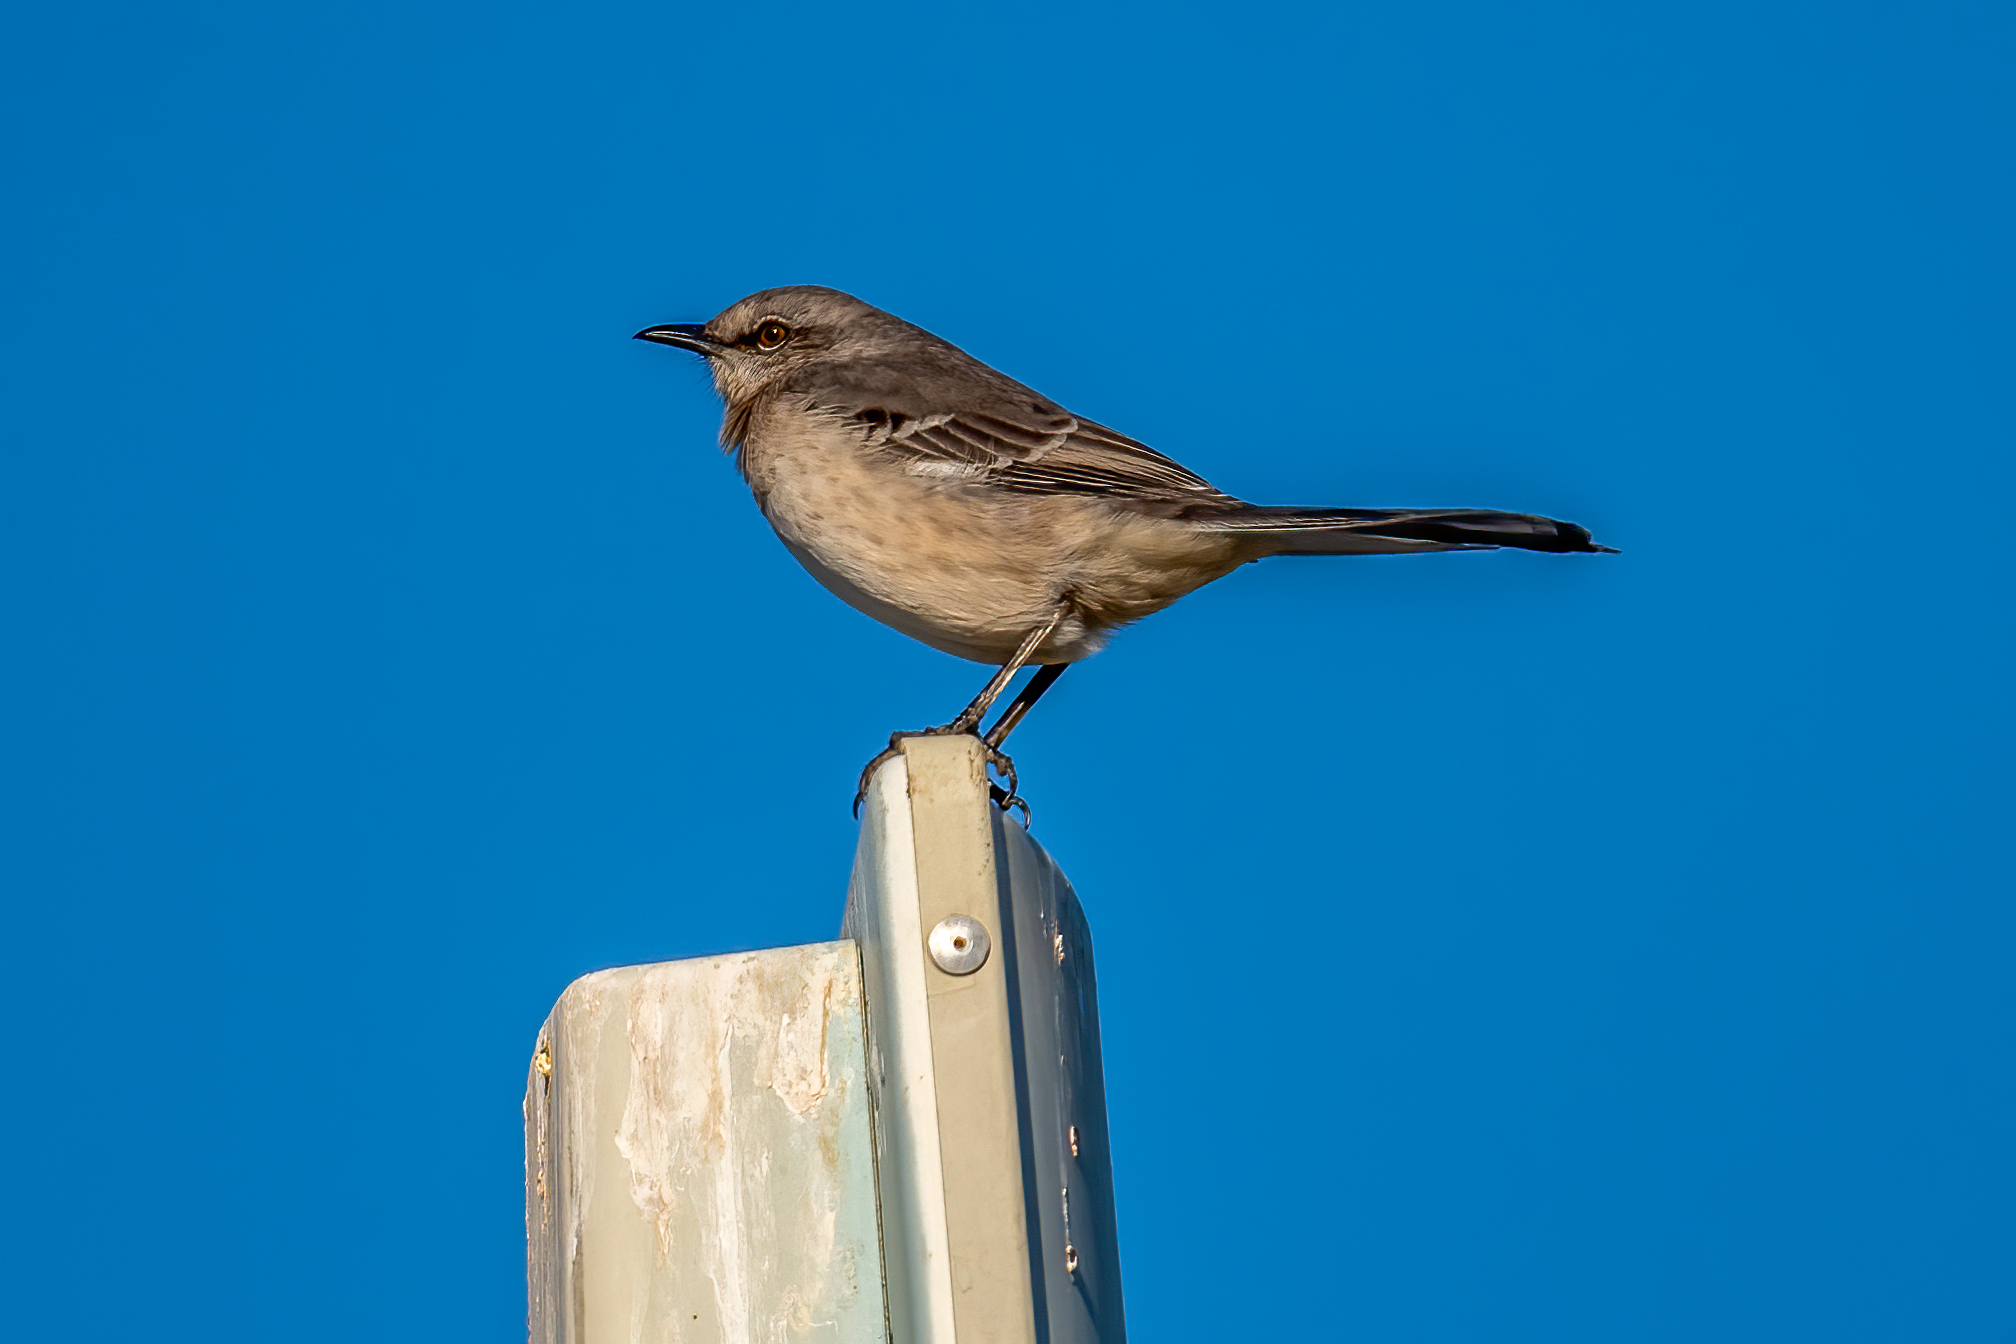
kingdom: Animalia
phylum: Chordata
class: Aves
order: Passeriformes
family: Mimidae
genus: Mimus
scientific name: Mimus polyglottos
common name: Northern mockingbird
